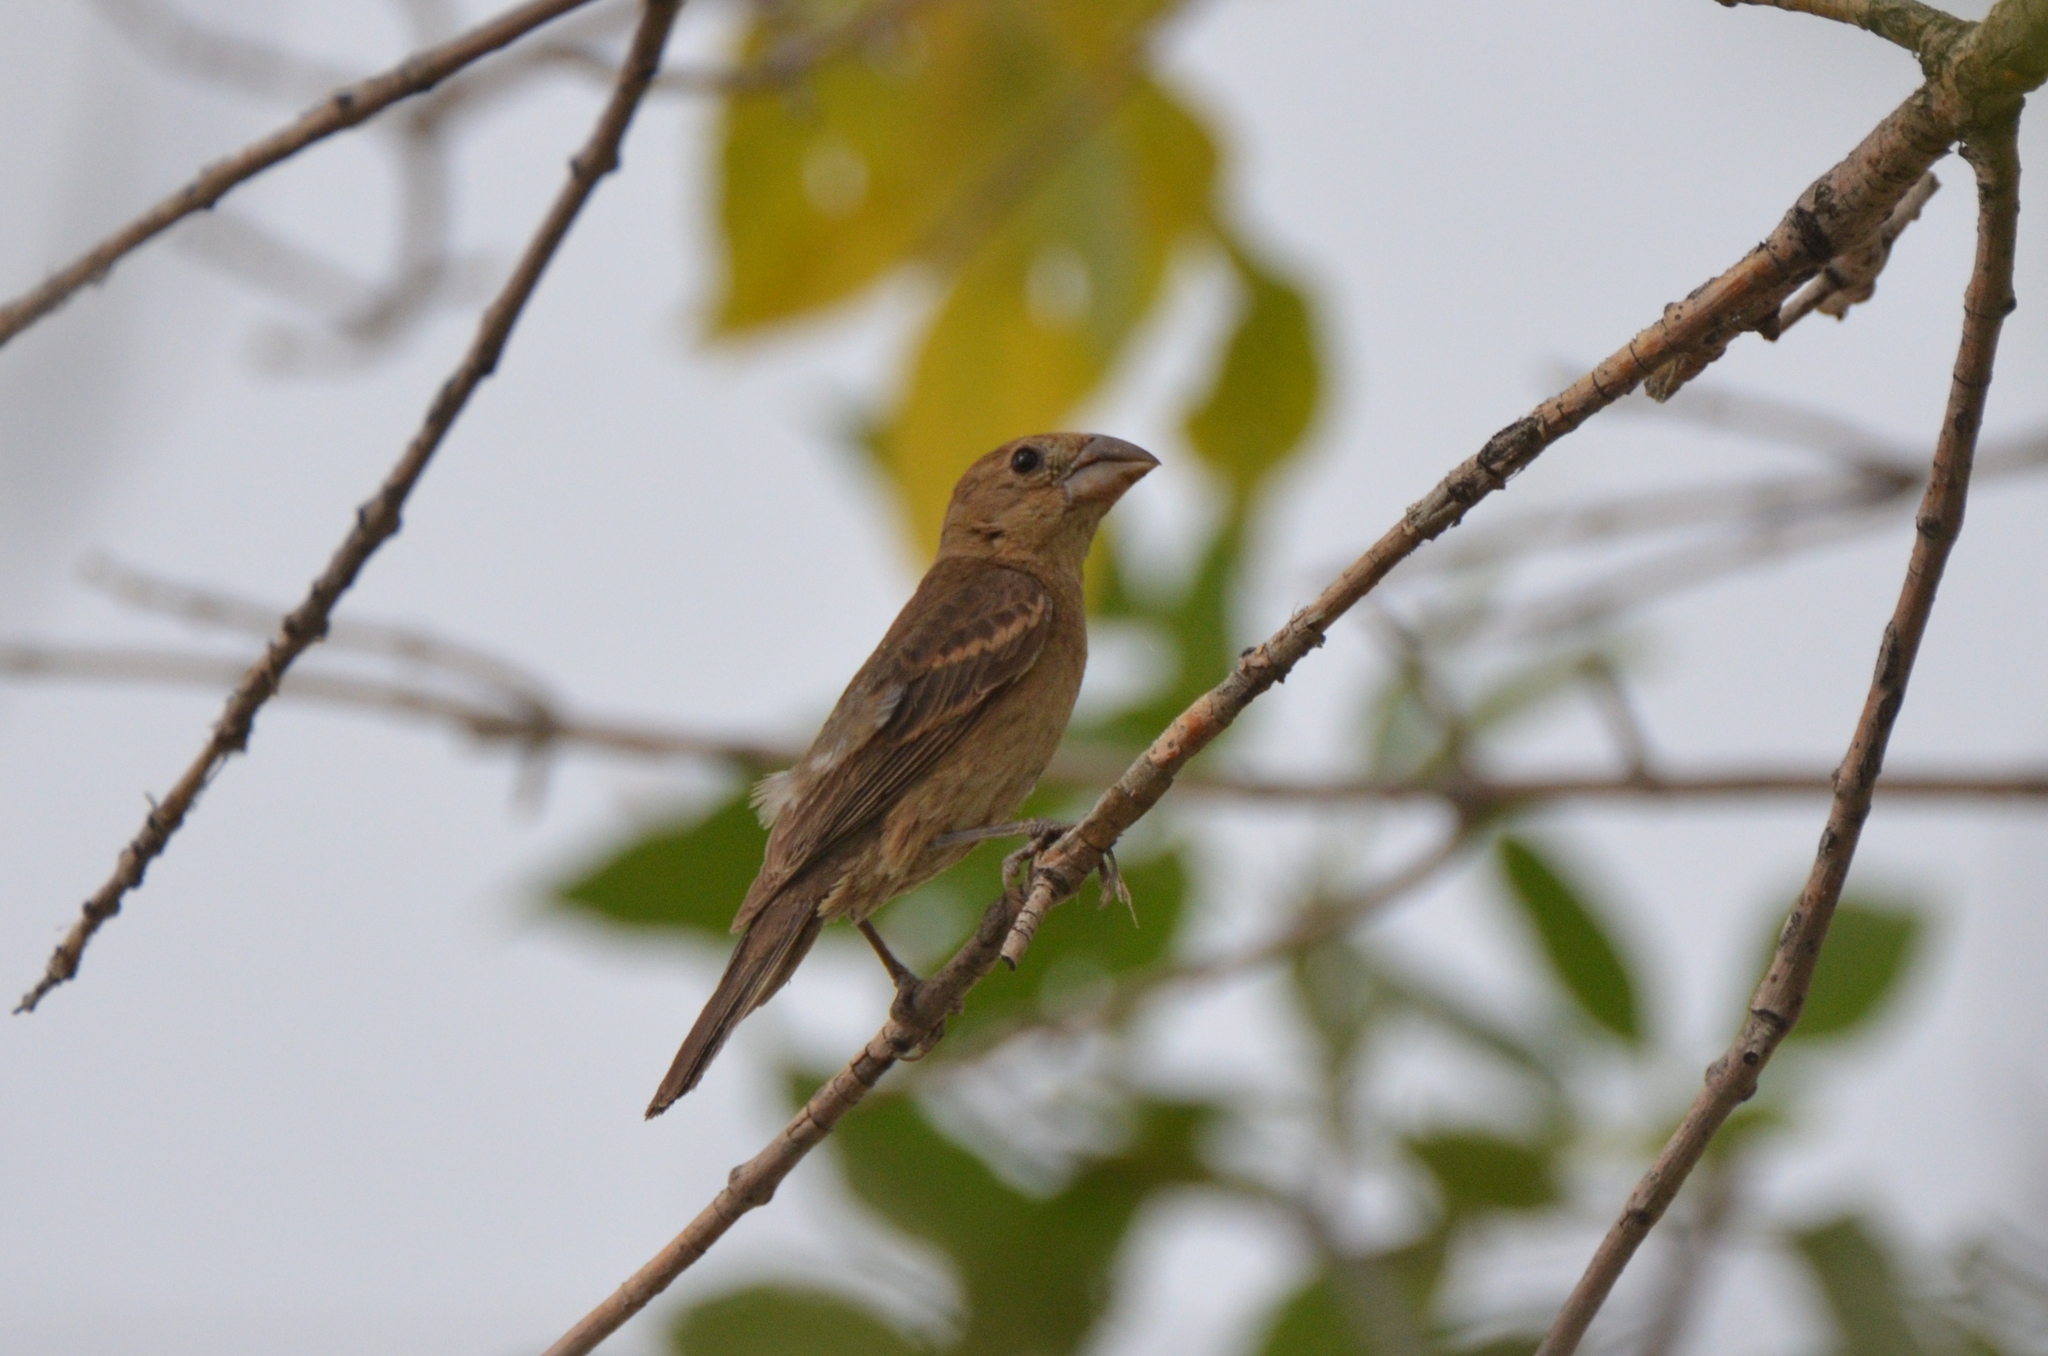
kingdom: Animalia
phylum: Chordata
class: Aves
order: Passeriformes
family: Cardinalidae
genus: Passerina
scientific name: Passerina caerulea
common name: Blue grosbeak
